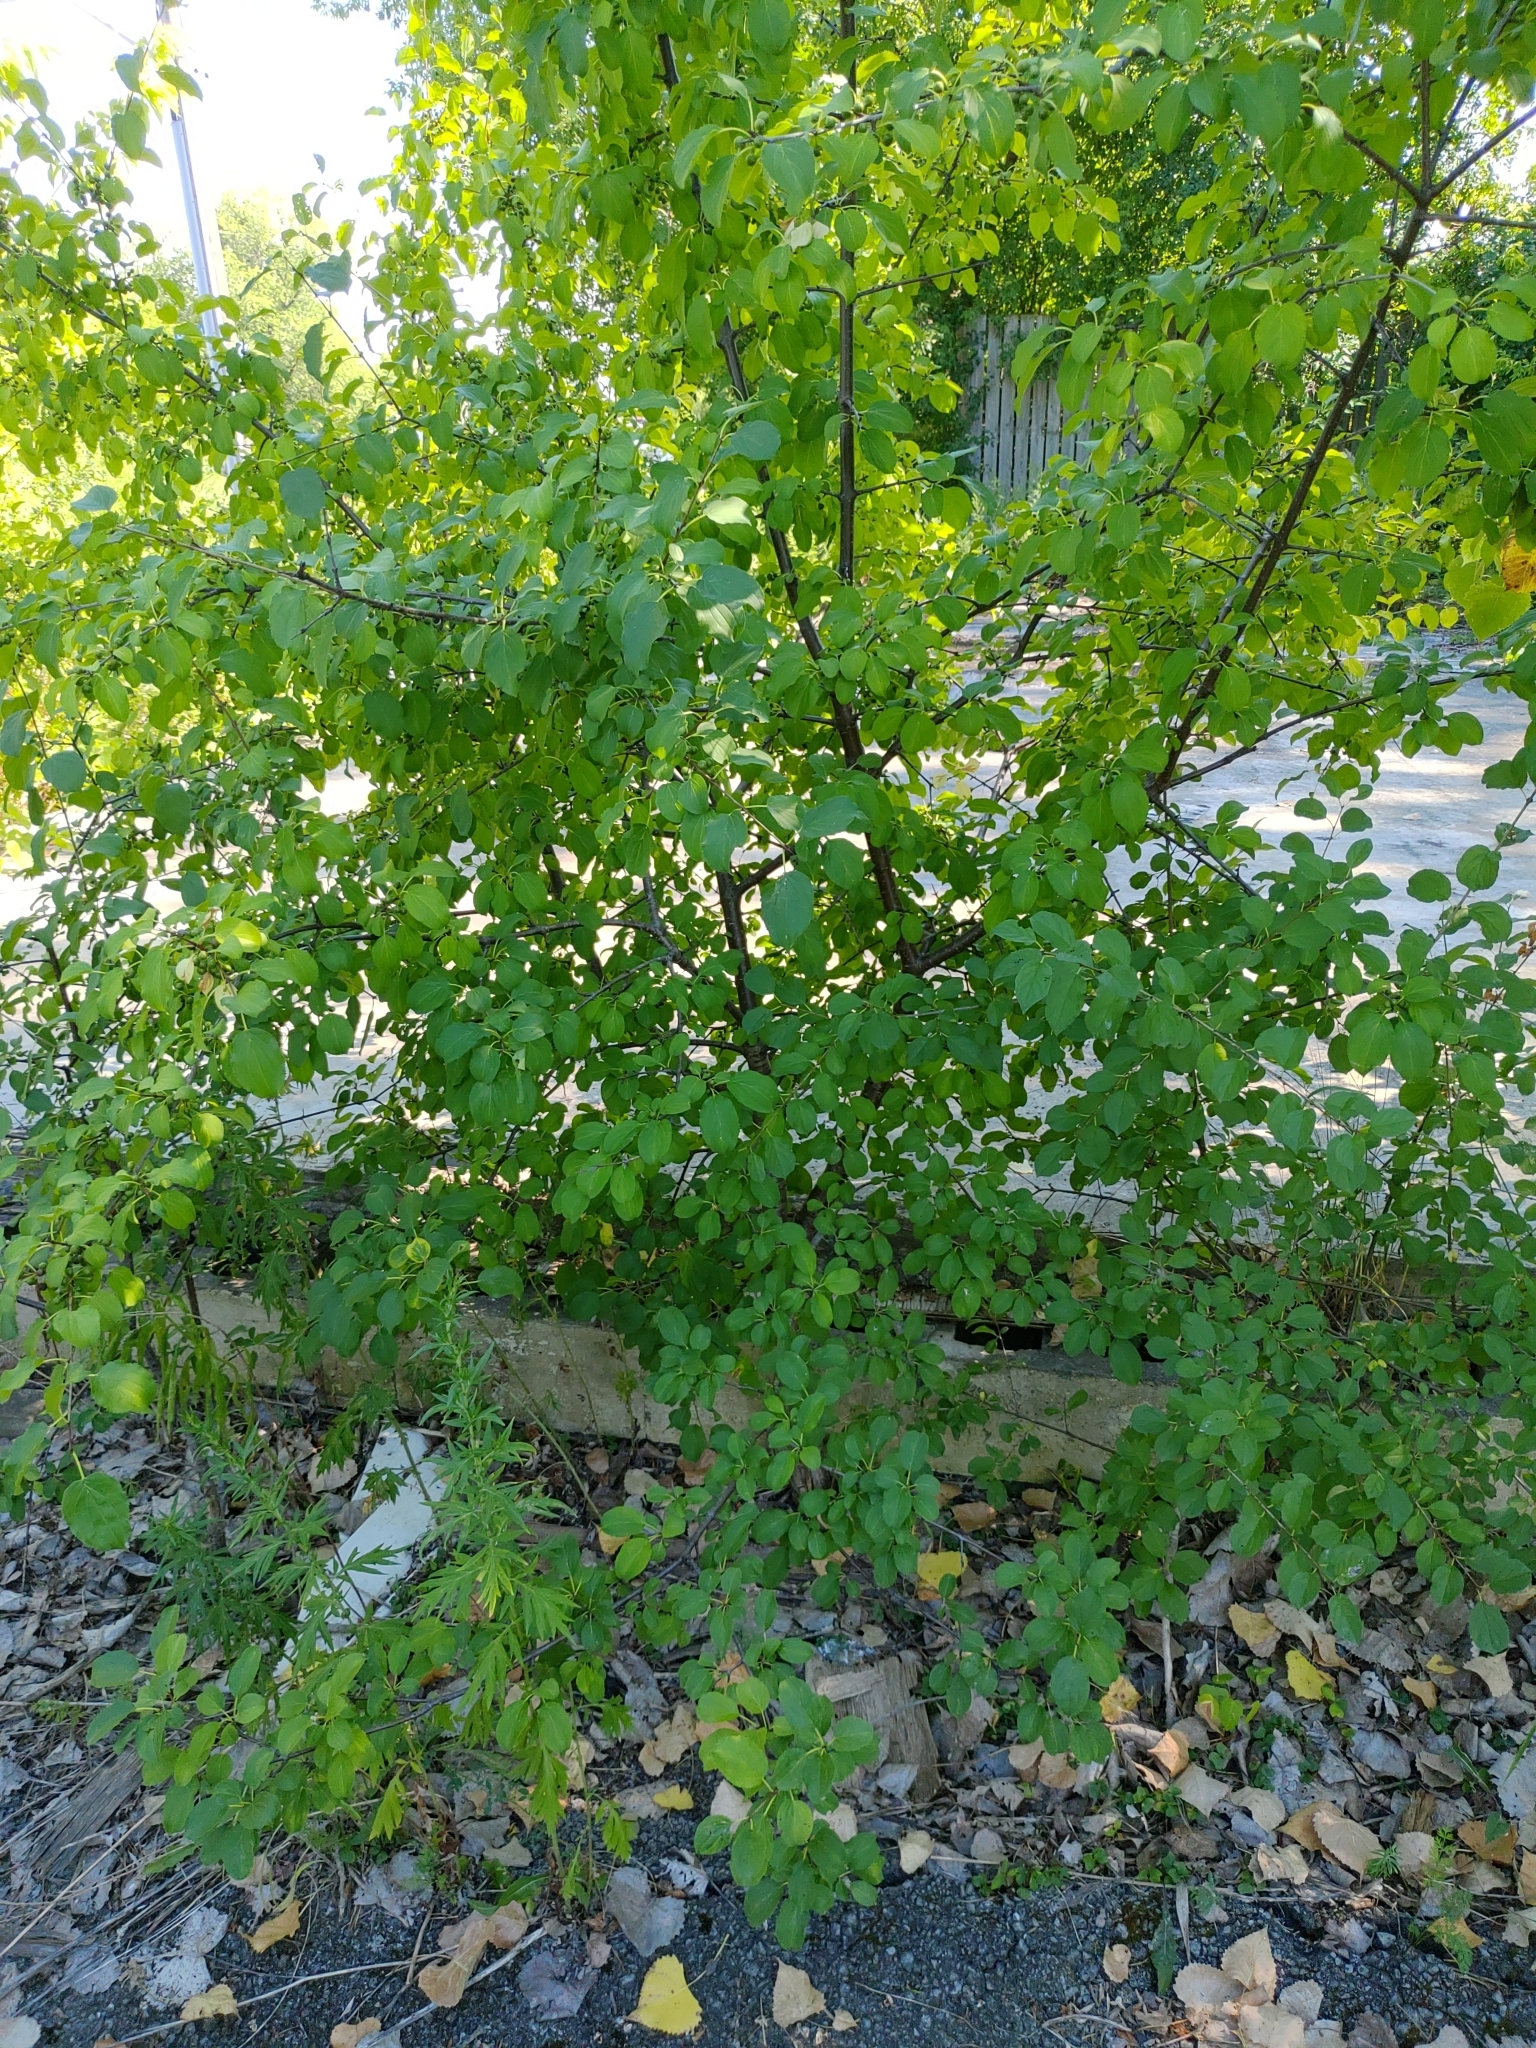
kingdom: Plantae
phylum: Tracheophyta
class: Magnoliopsida
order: Rosales
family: Rhamnaceae
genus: Rhamnus
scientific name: Rhamnus cathartica
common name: Common buckthorn
